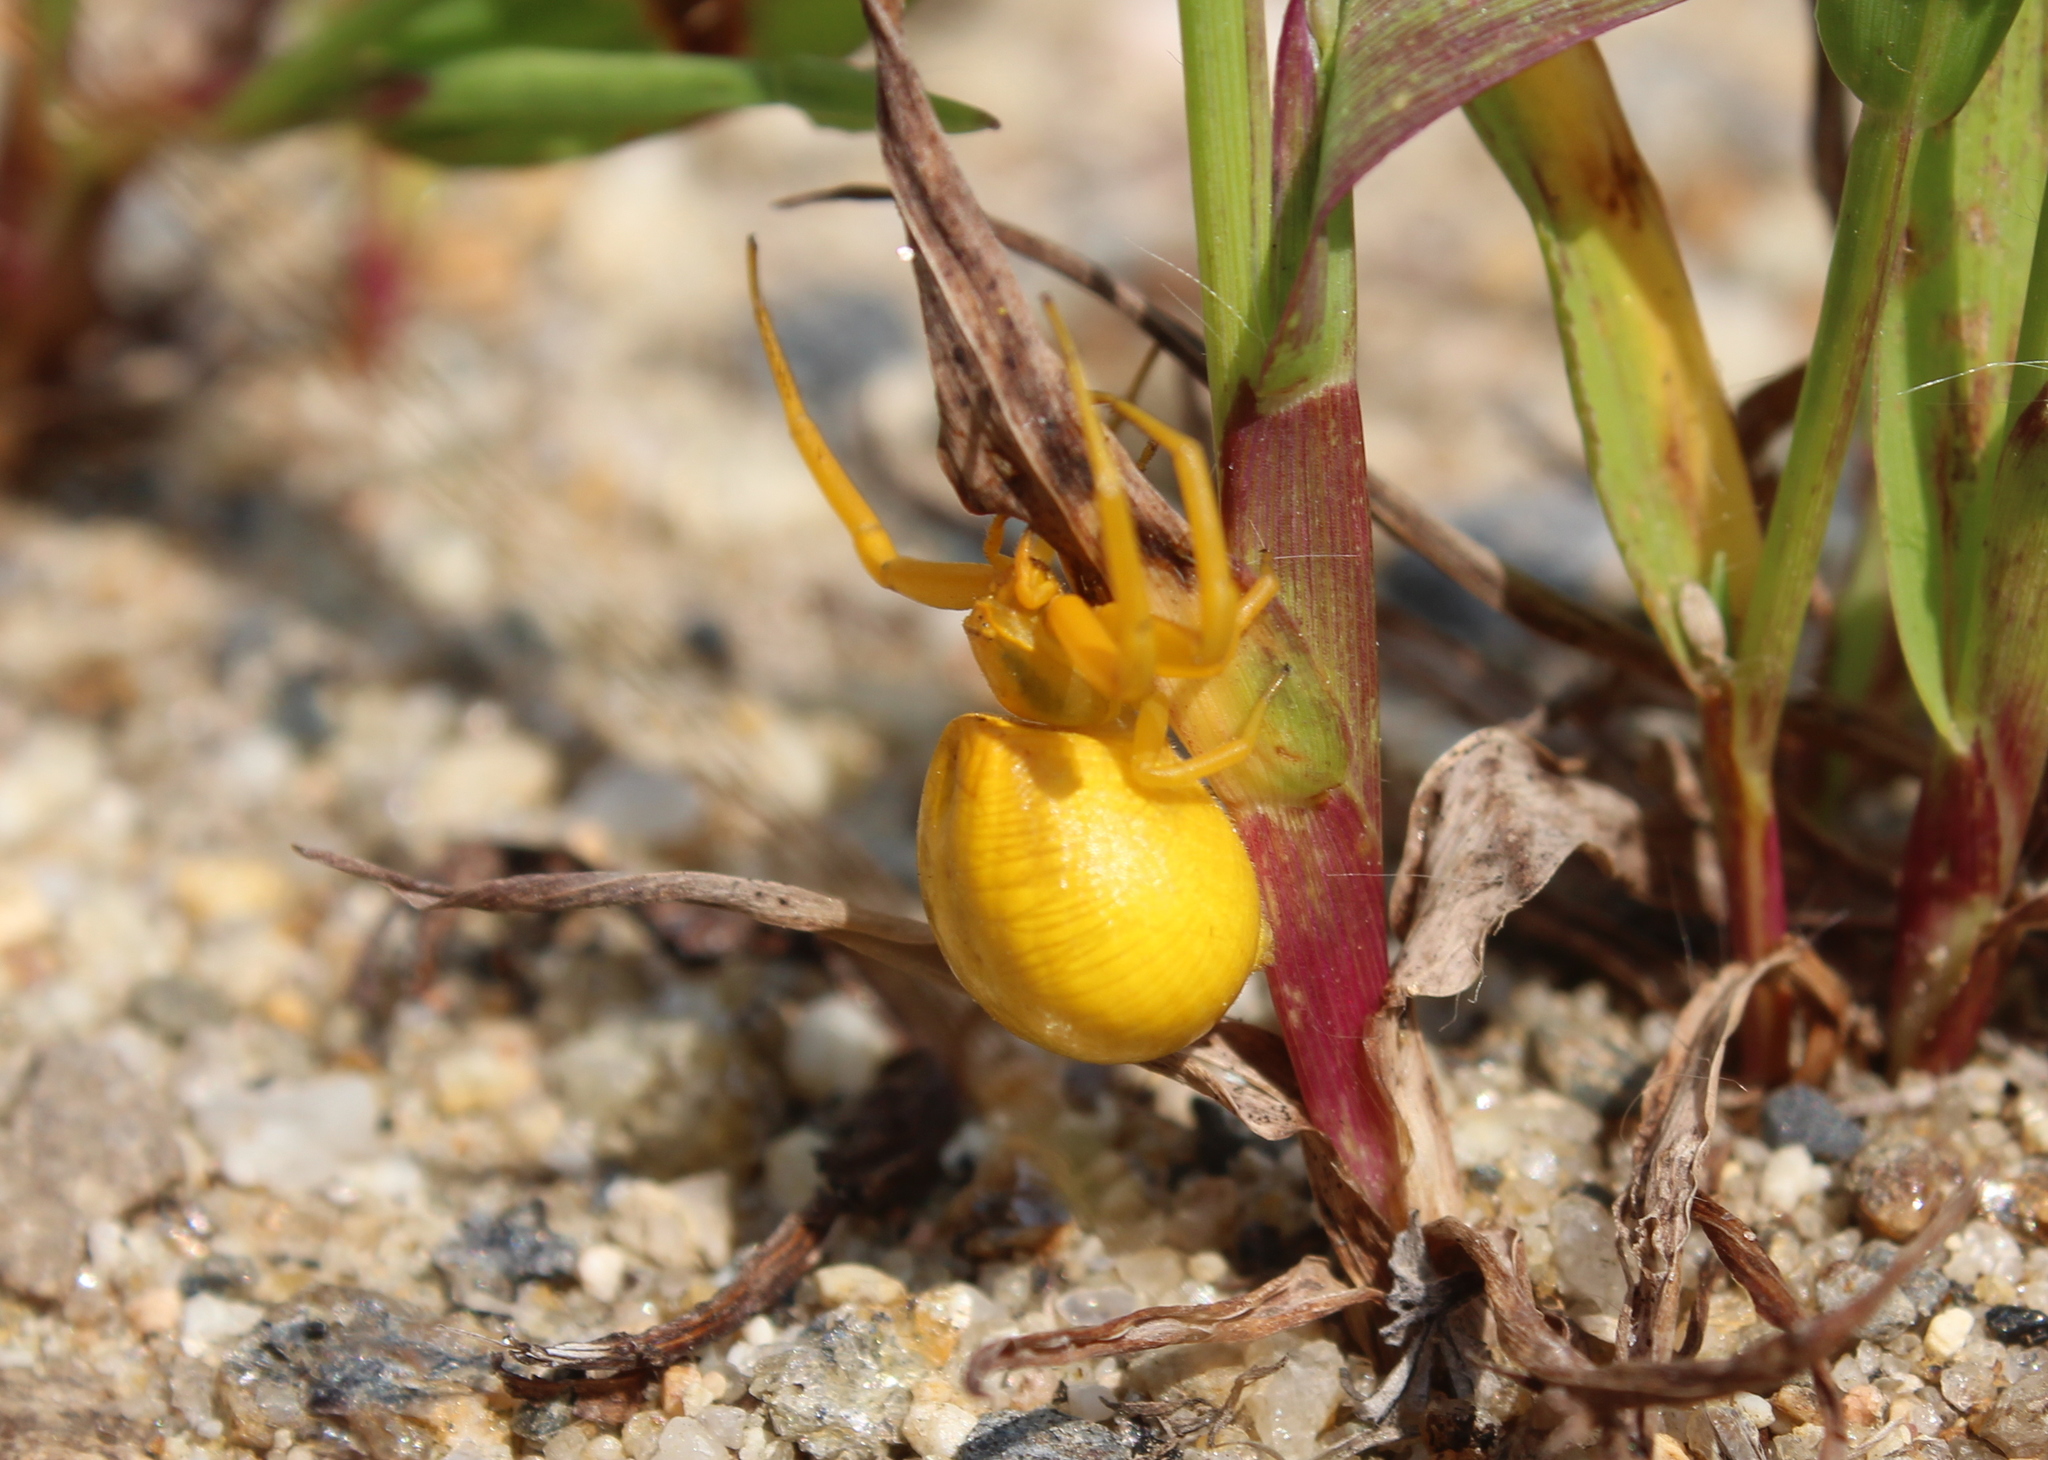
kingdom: Animalia
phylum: Arthropoda
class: Arachnida
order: Araneae
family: Thomisidae
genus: Misumenoides
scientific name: Misumenoides formosipes
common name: White-banded crab spider
